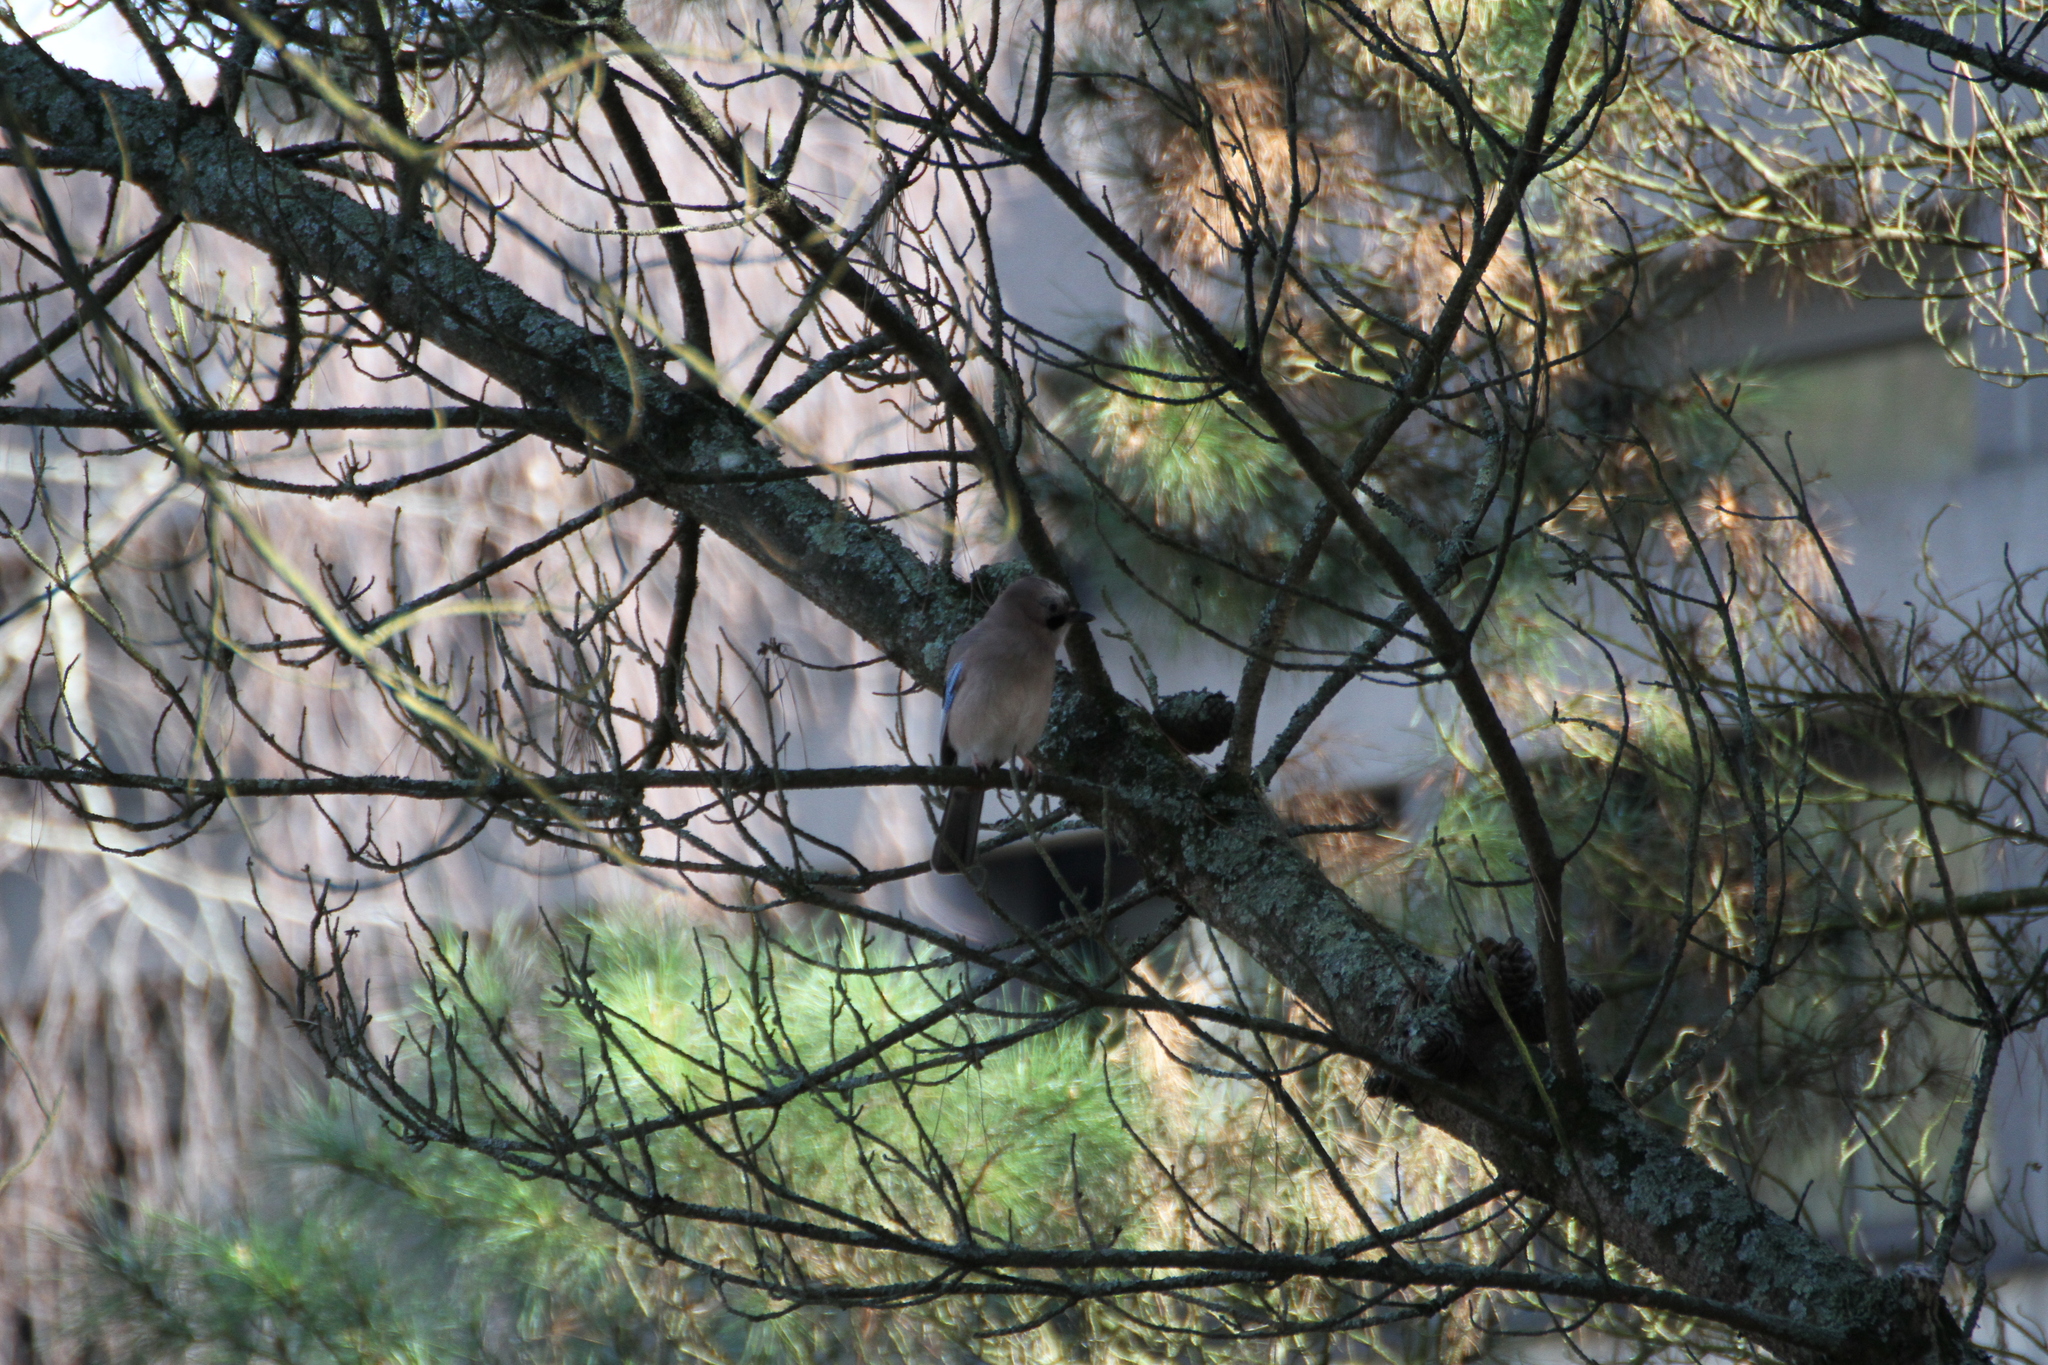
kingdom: Animalia
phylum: Chordata
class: Aves
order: Passeriformes
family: Corvidae
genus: Garrulus
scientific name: Garrulus glandarius
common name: Eurasian jay
